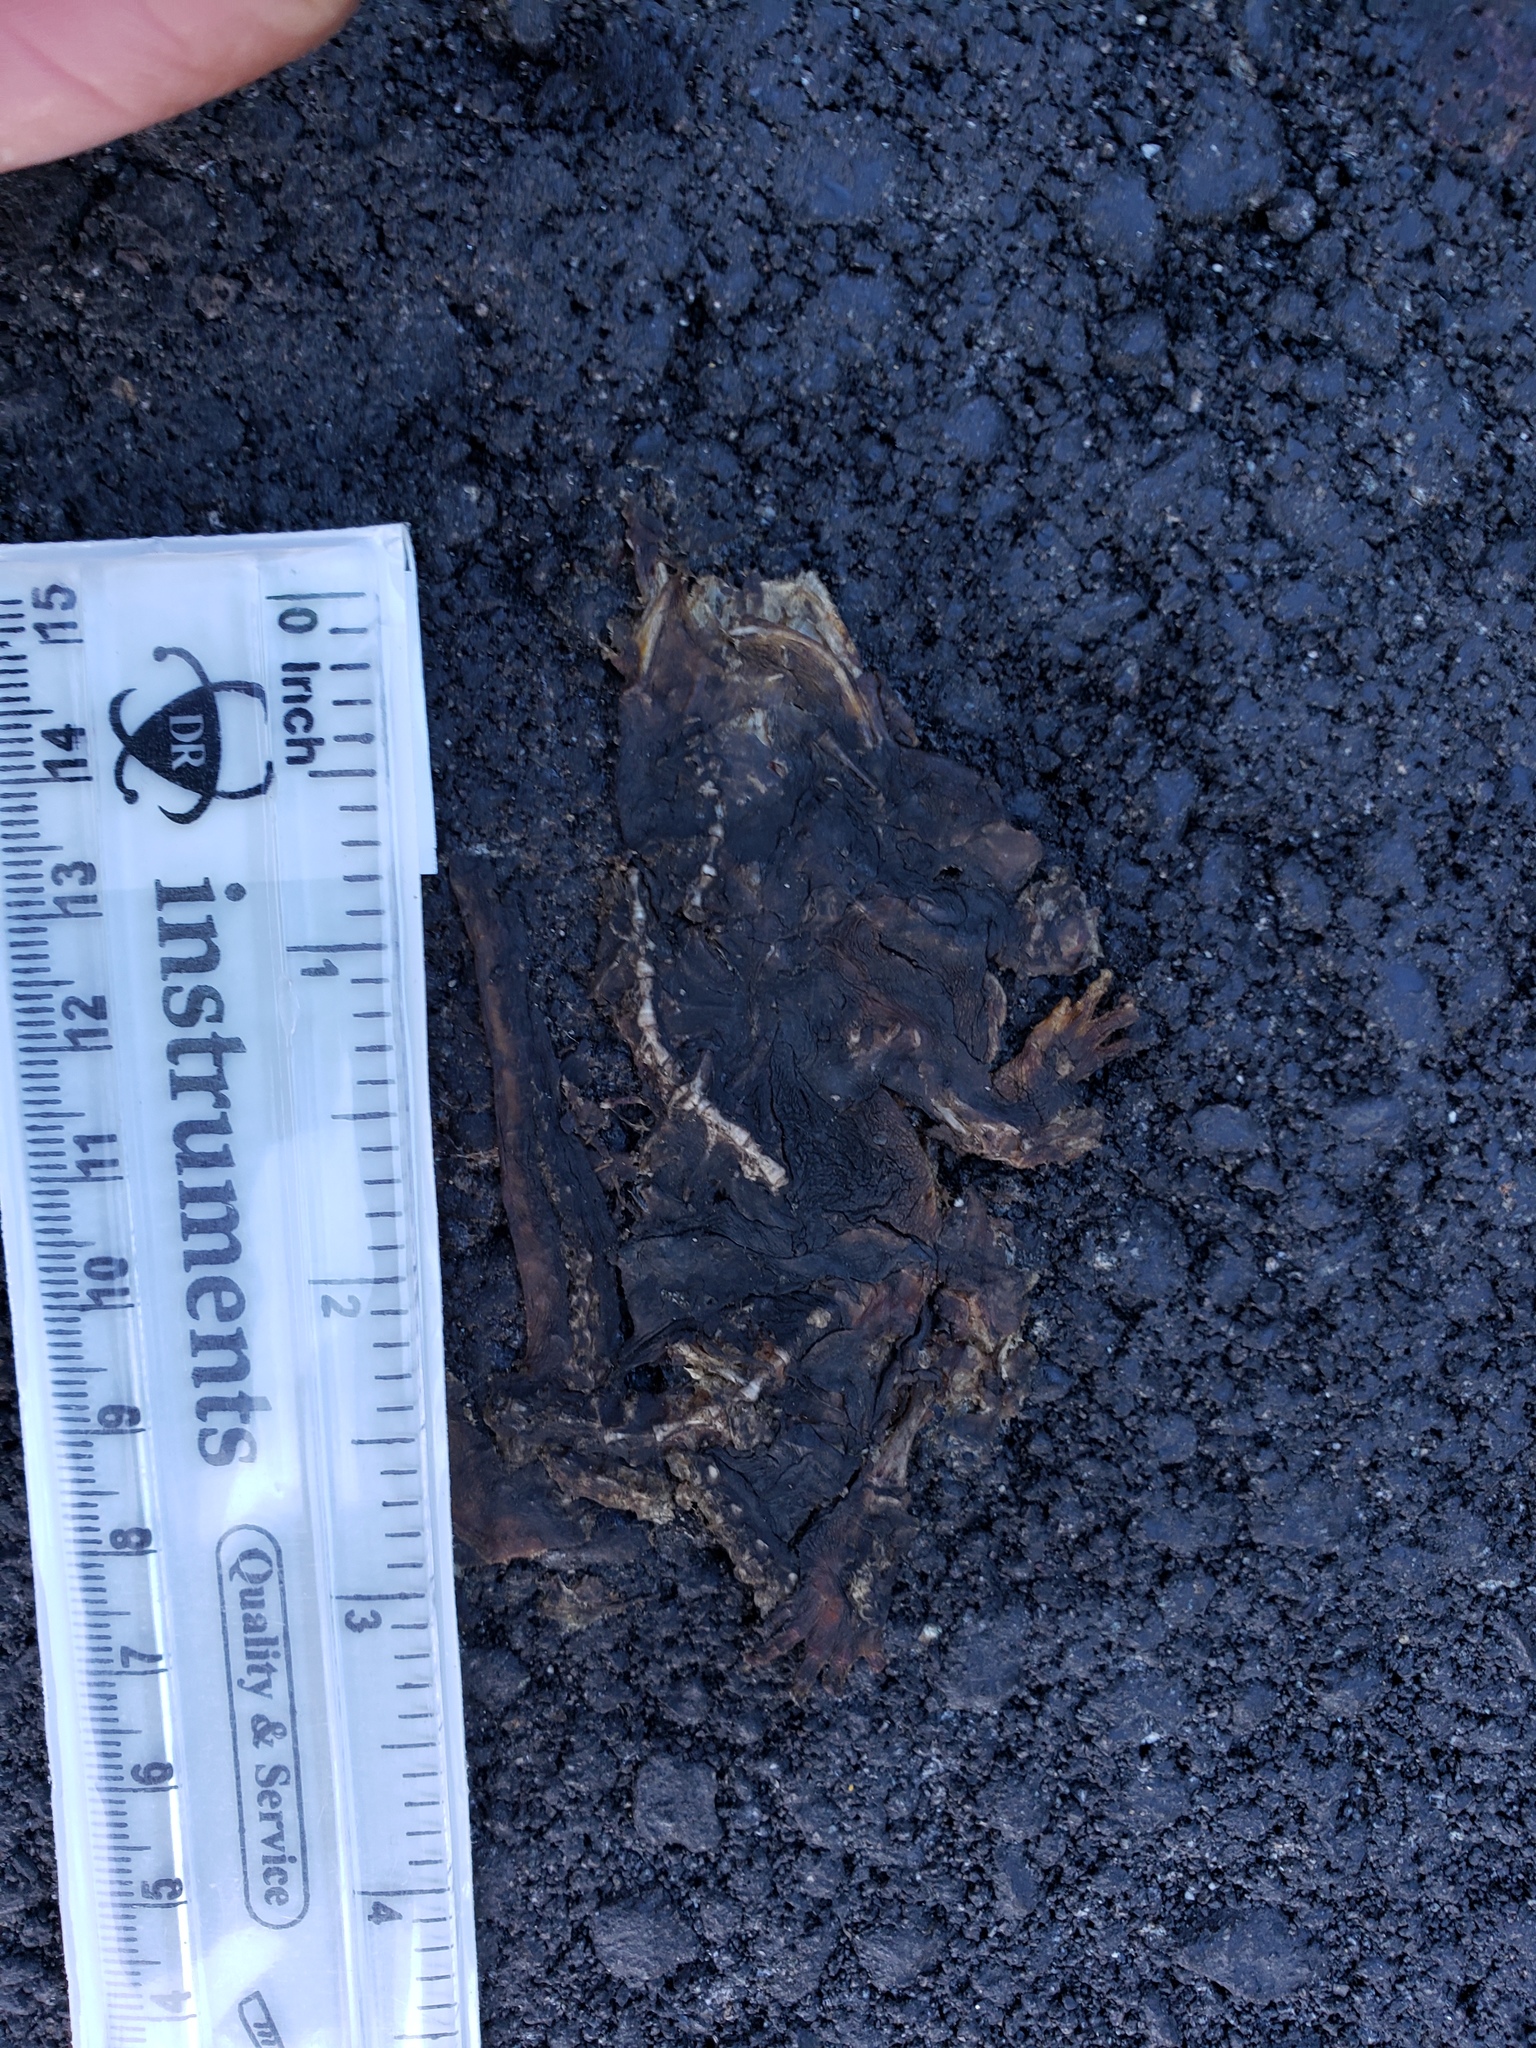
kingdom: Animalia
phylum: Chordata
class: Amphibia
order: Caudata
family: Salamandridae
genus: Taricha
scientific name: Taricha
